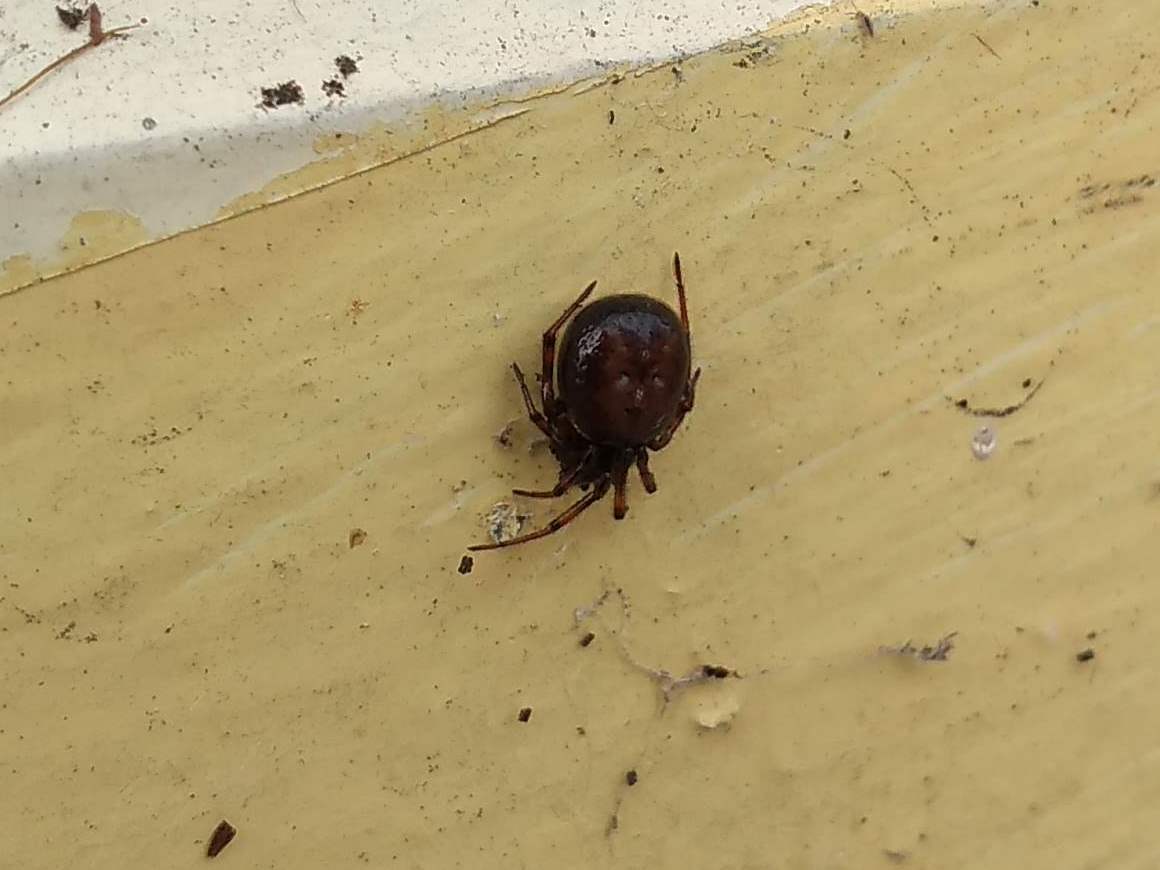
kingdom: Animalia
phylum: Arthropoda
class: Arachnida
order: Araneae
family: Theridiidae
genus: Steatoda
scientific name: Steatoda bipunctata
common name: False widow
